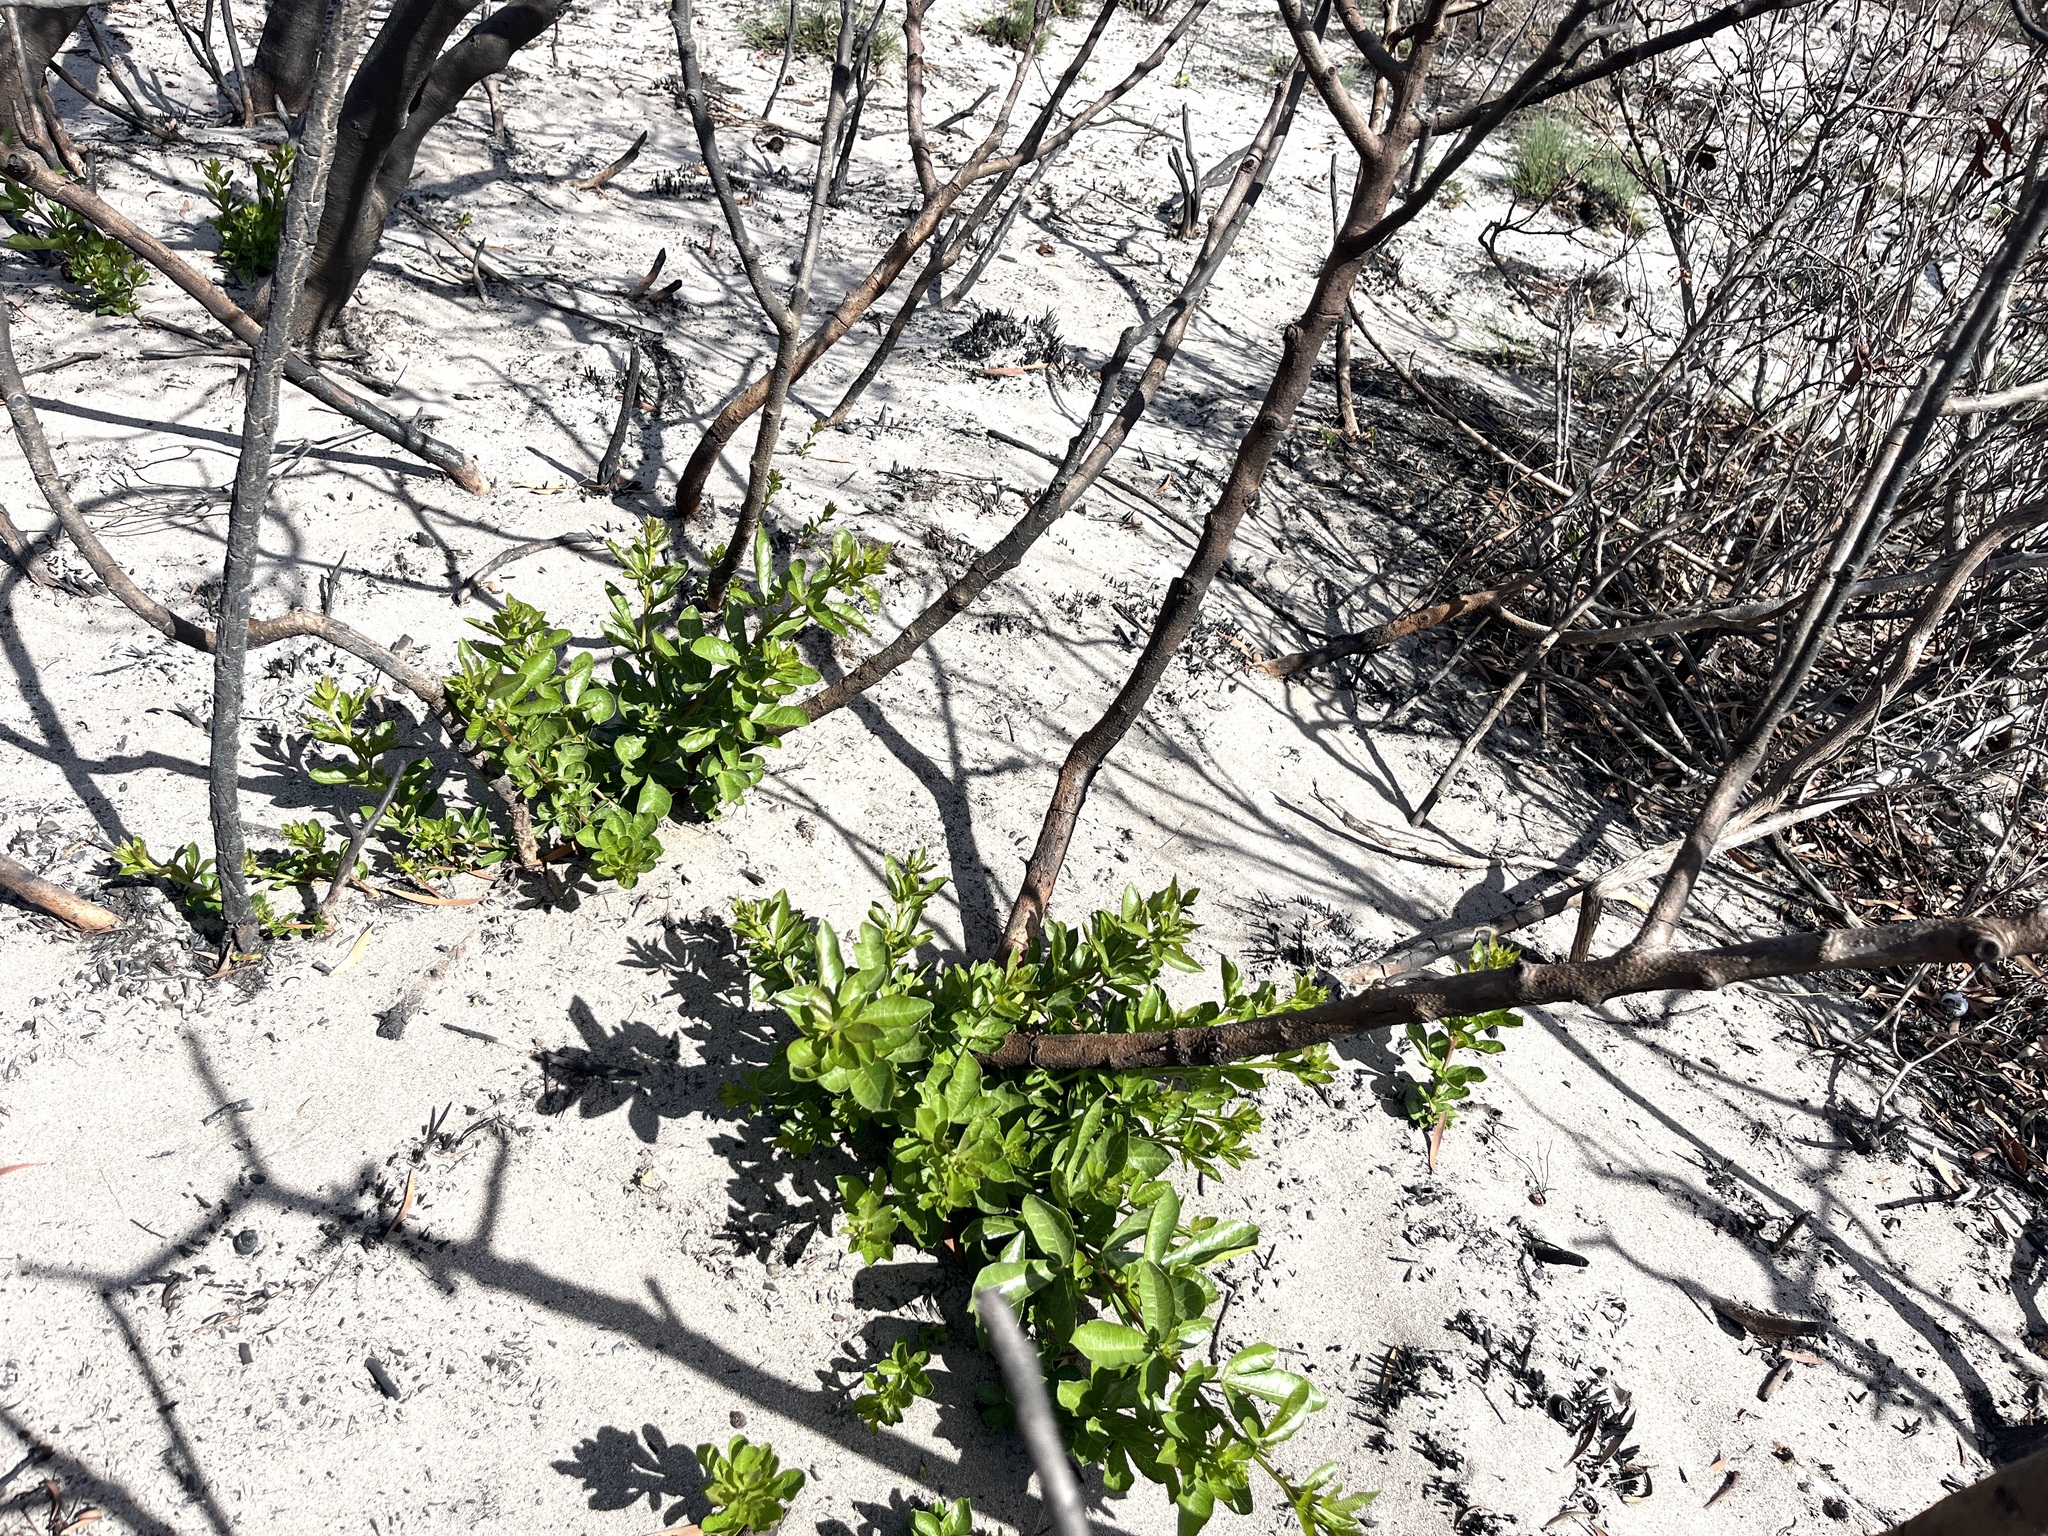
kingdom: Plantae
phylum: Tracheophyta
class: Magnoliopsida
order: Sapindales
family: Anacardiaceae
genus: Searsia
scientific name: Searsia laevigata
